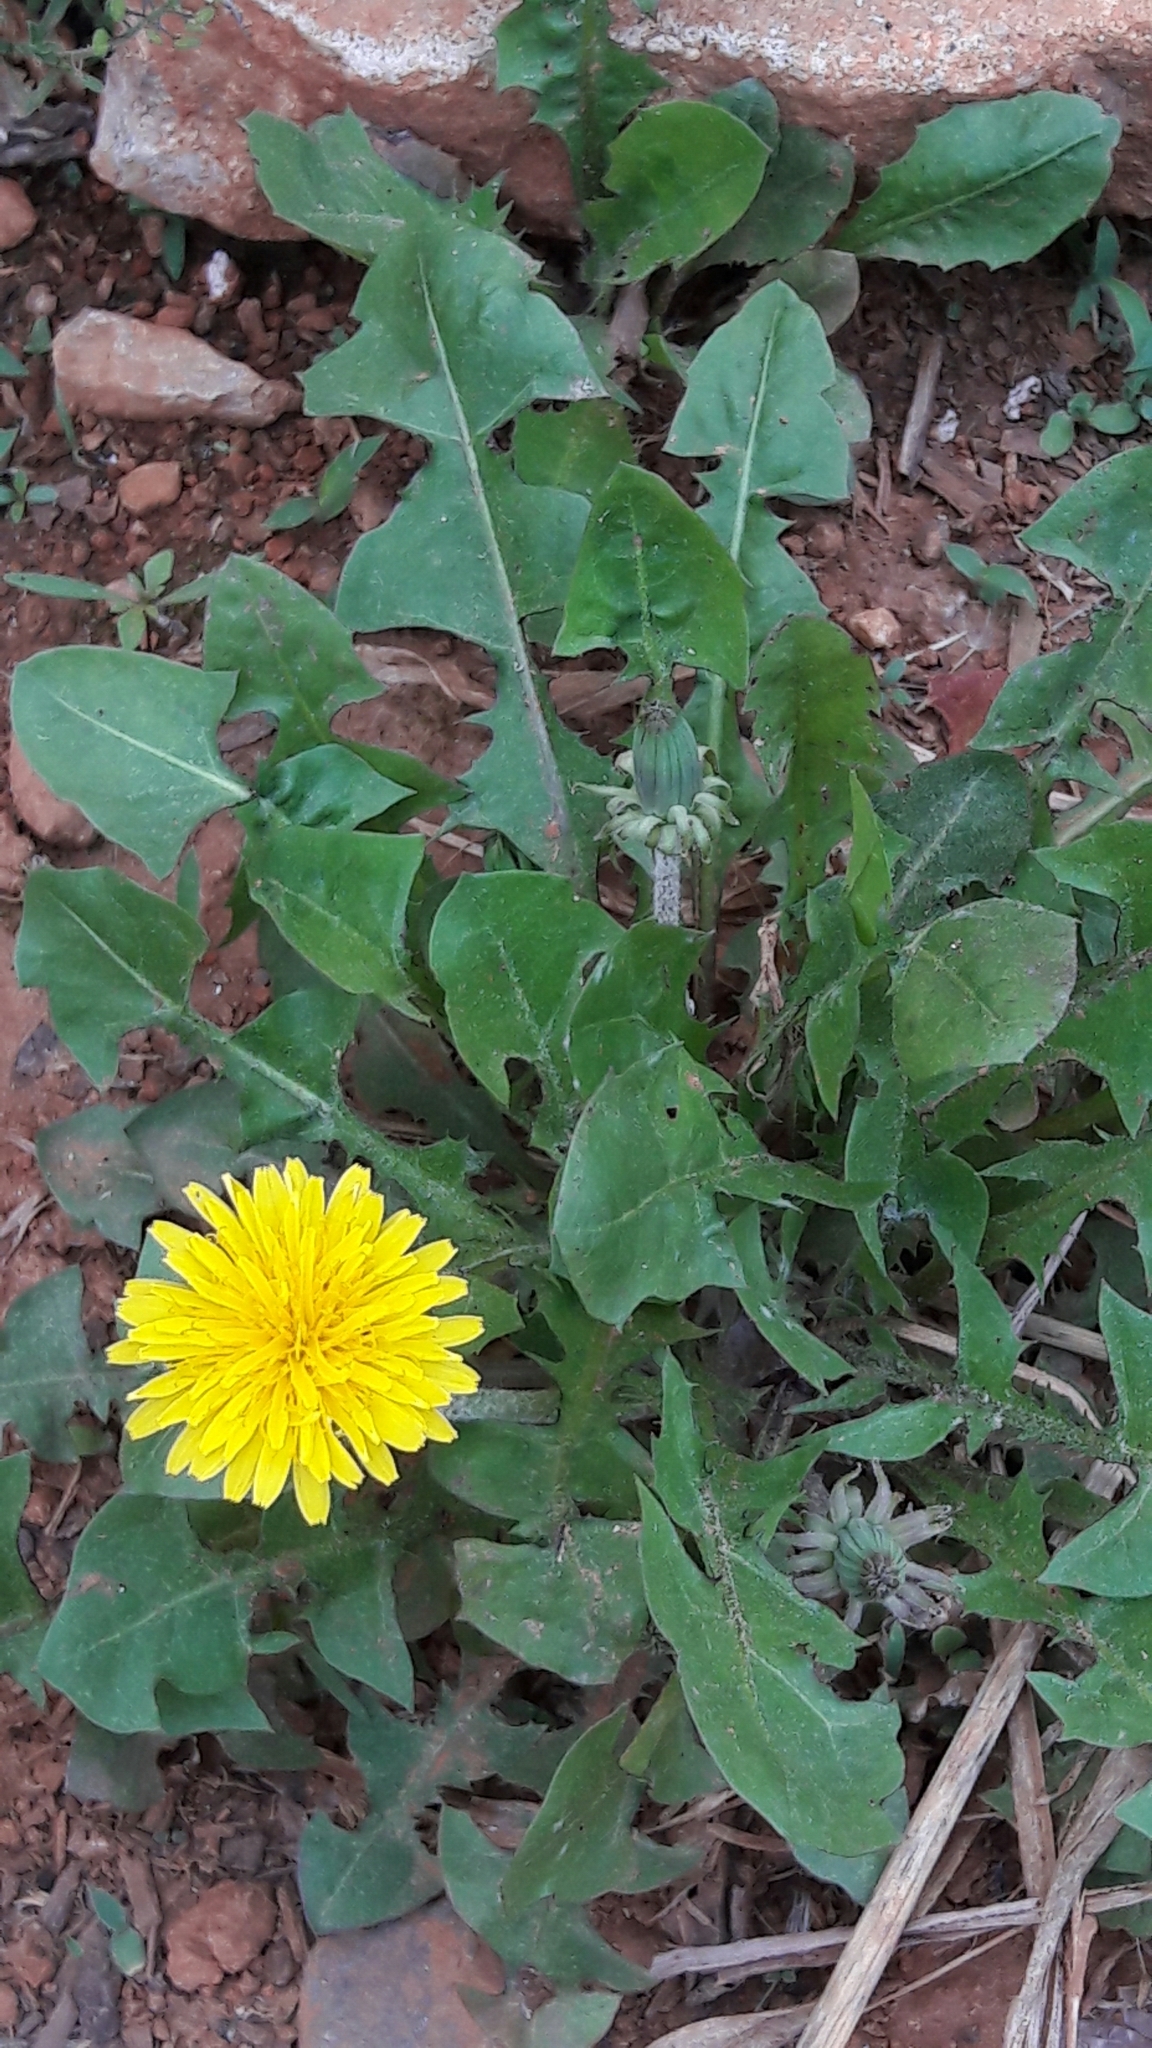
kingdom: Plantae
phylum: Tracheophyta
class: Magnoliopsida
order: Asterales
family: Asteraceae
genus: Taraxacum
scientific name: Taraxacum officinale
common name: Common dandelion
